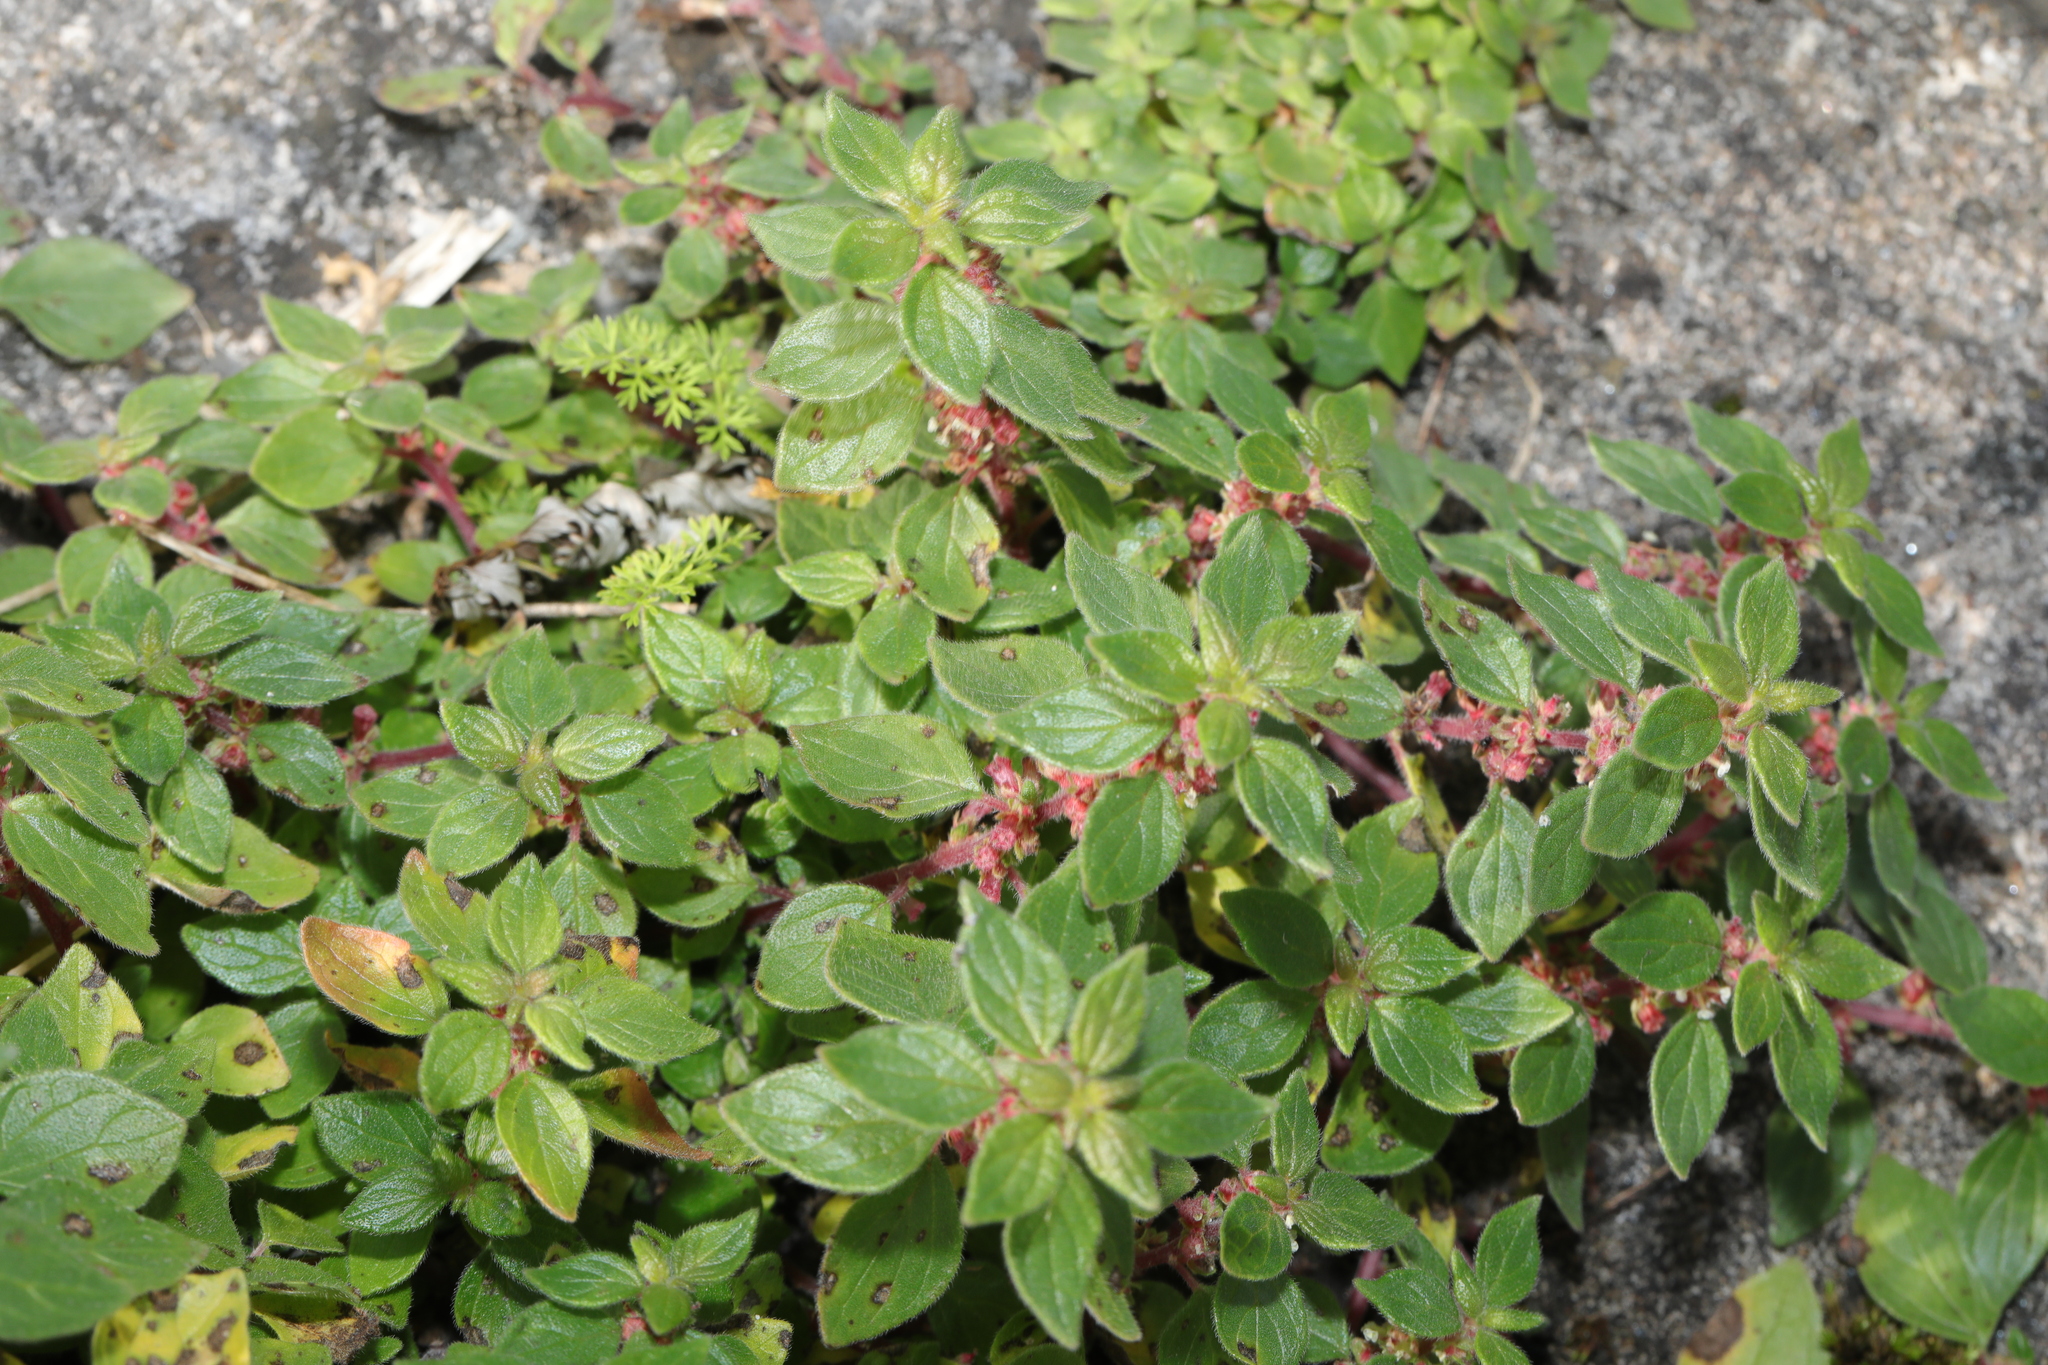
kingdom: Plantae
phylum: Tracheophyta
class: Magnoliopsida
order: Rosales
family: Urticaceae
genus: Parietaria
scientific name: Parietaria judaica
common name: Pellitory-of-the-wall
